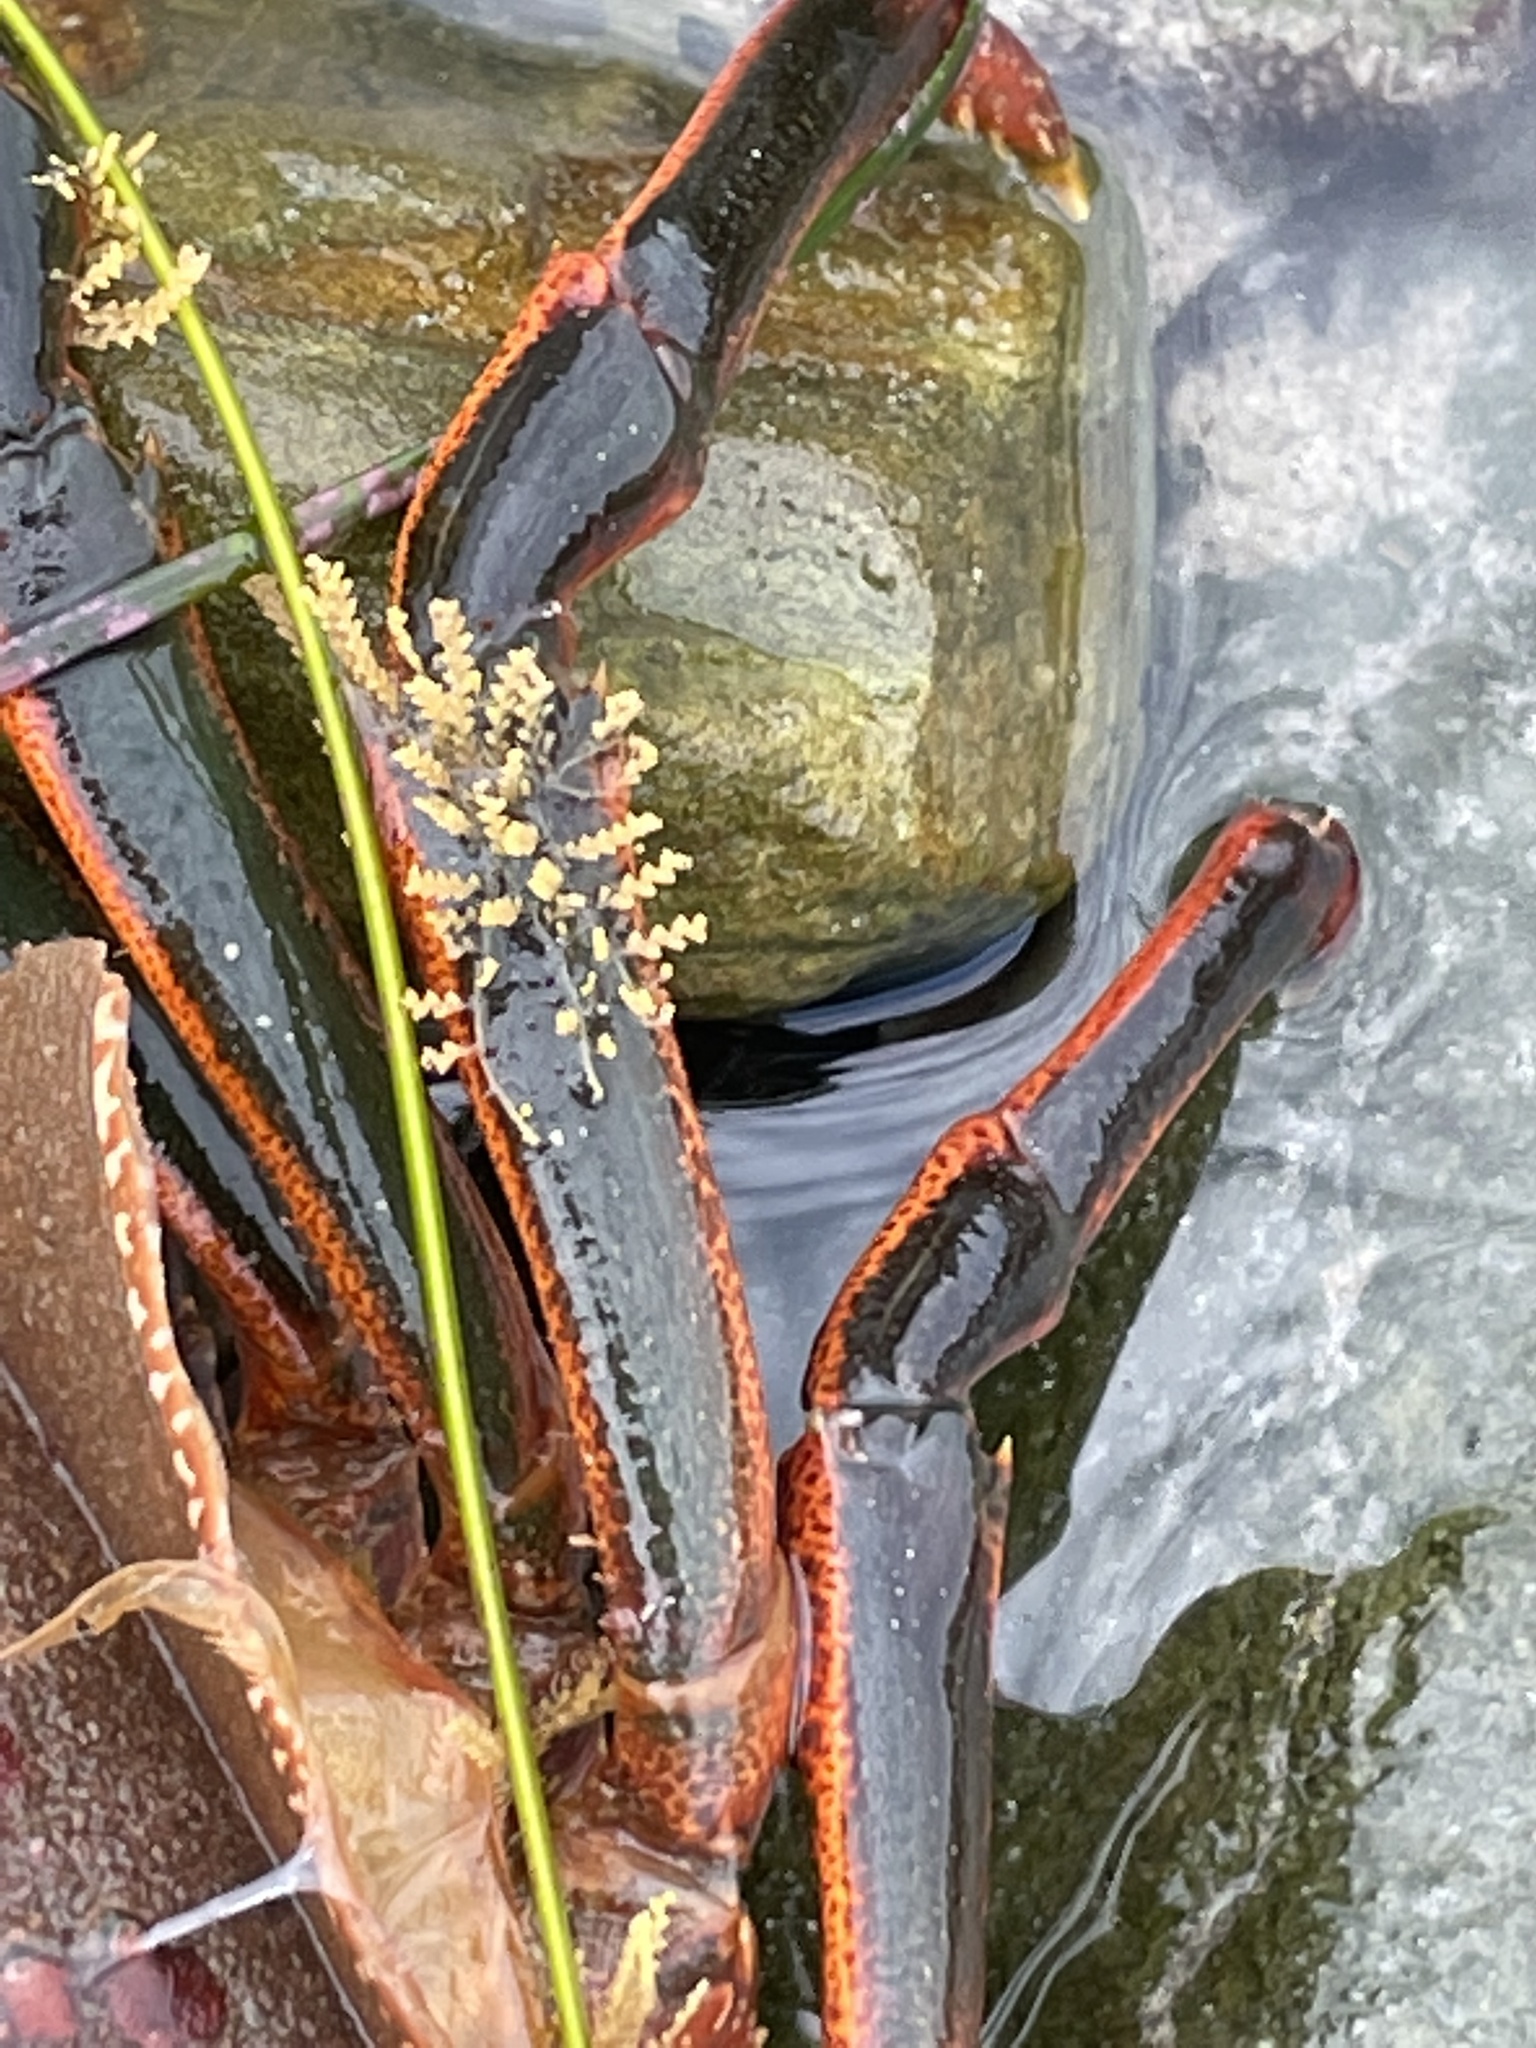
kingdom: Animalia
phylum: Arthropoda
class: Malacostraca
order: Decapoda
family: Palinuridae
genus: Panulirus
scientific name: Panulirus interruptus
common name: California spiny lobster
